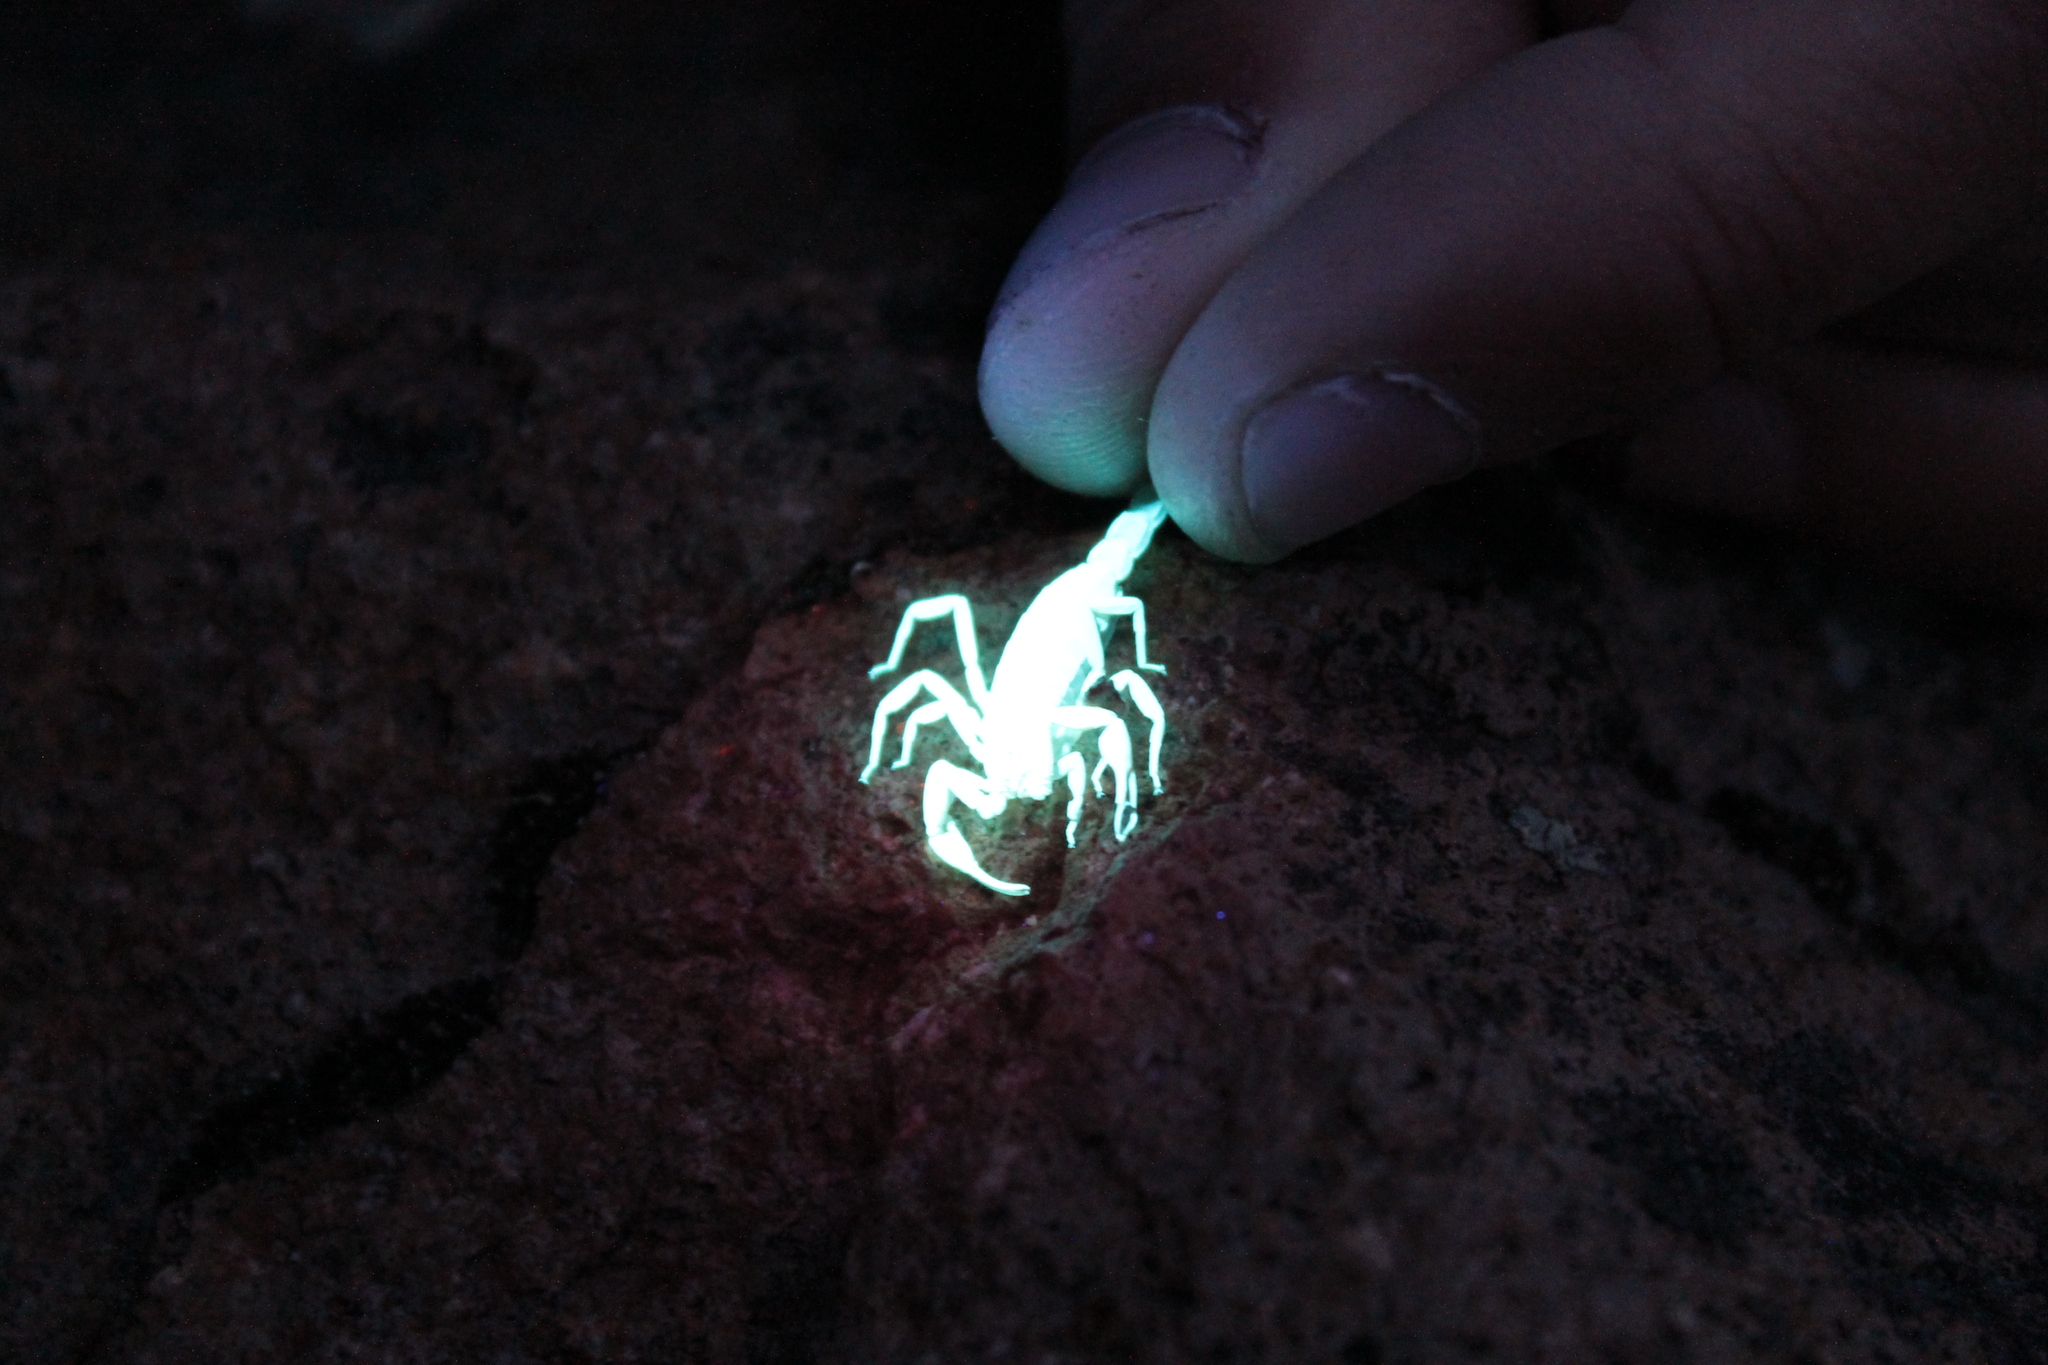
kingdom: Animalia
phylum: Arthropoda
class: Arachnida
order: Scorpiones
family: Vaejovidae
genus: Serradigitus
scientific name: Serradigitus gertschi
